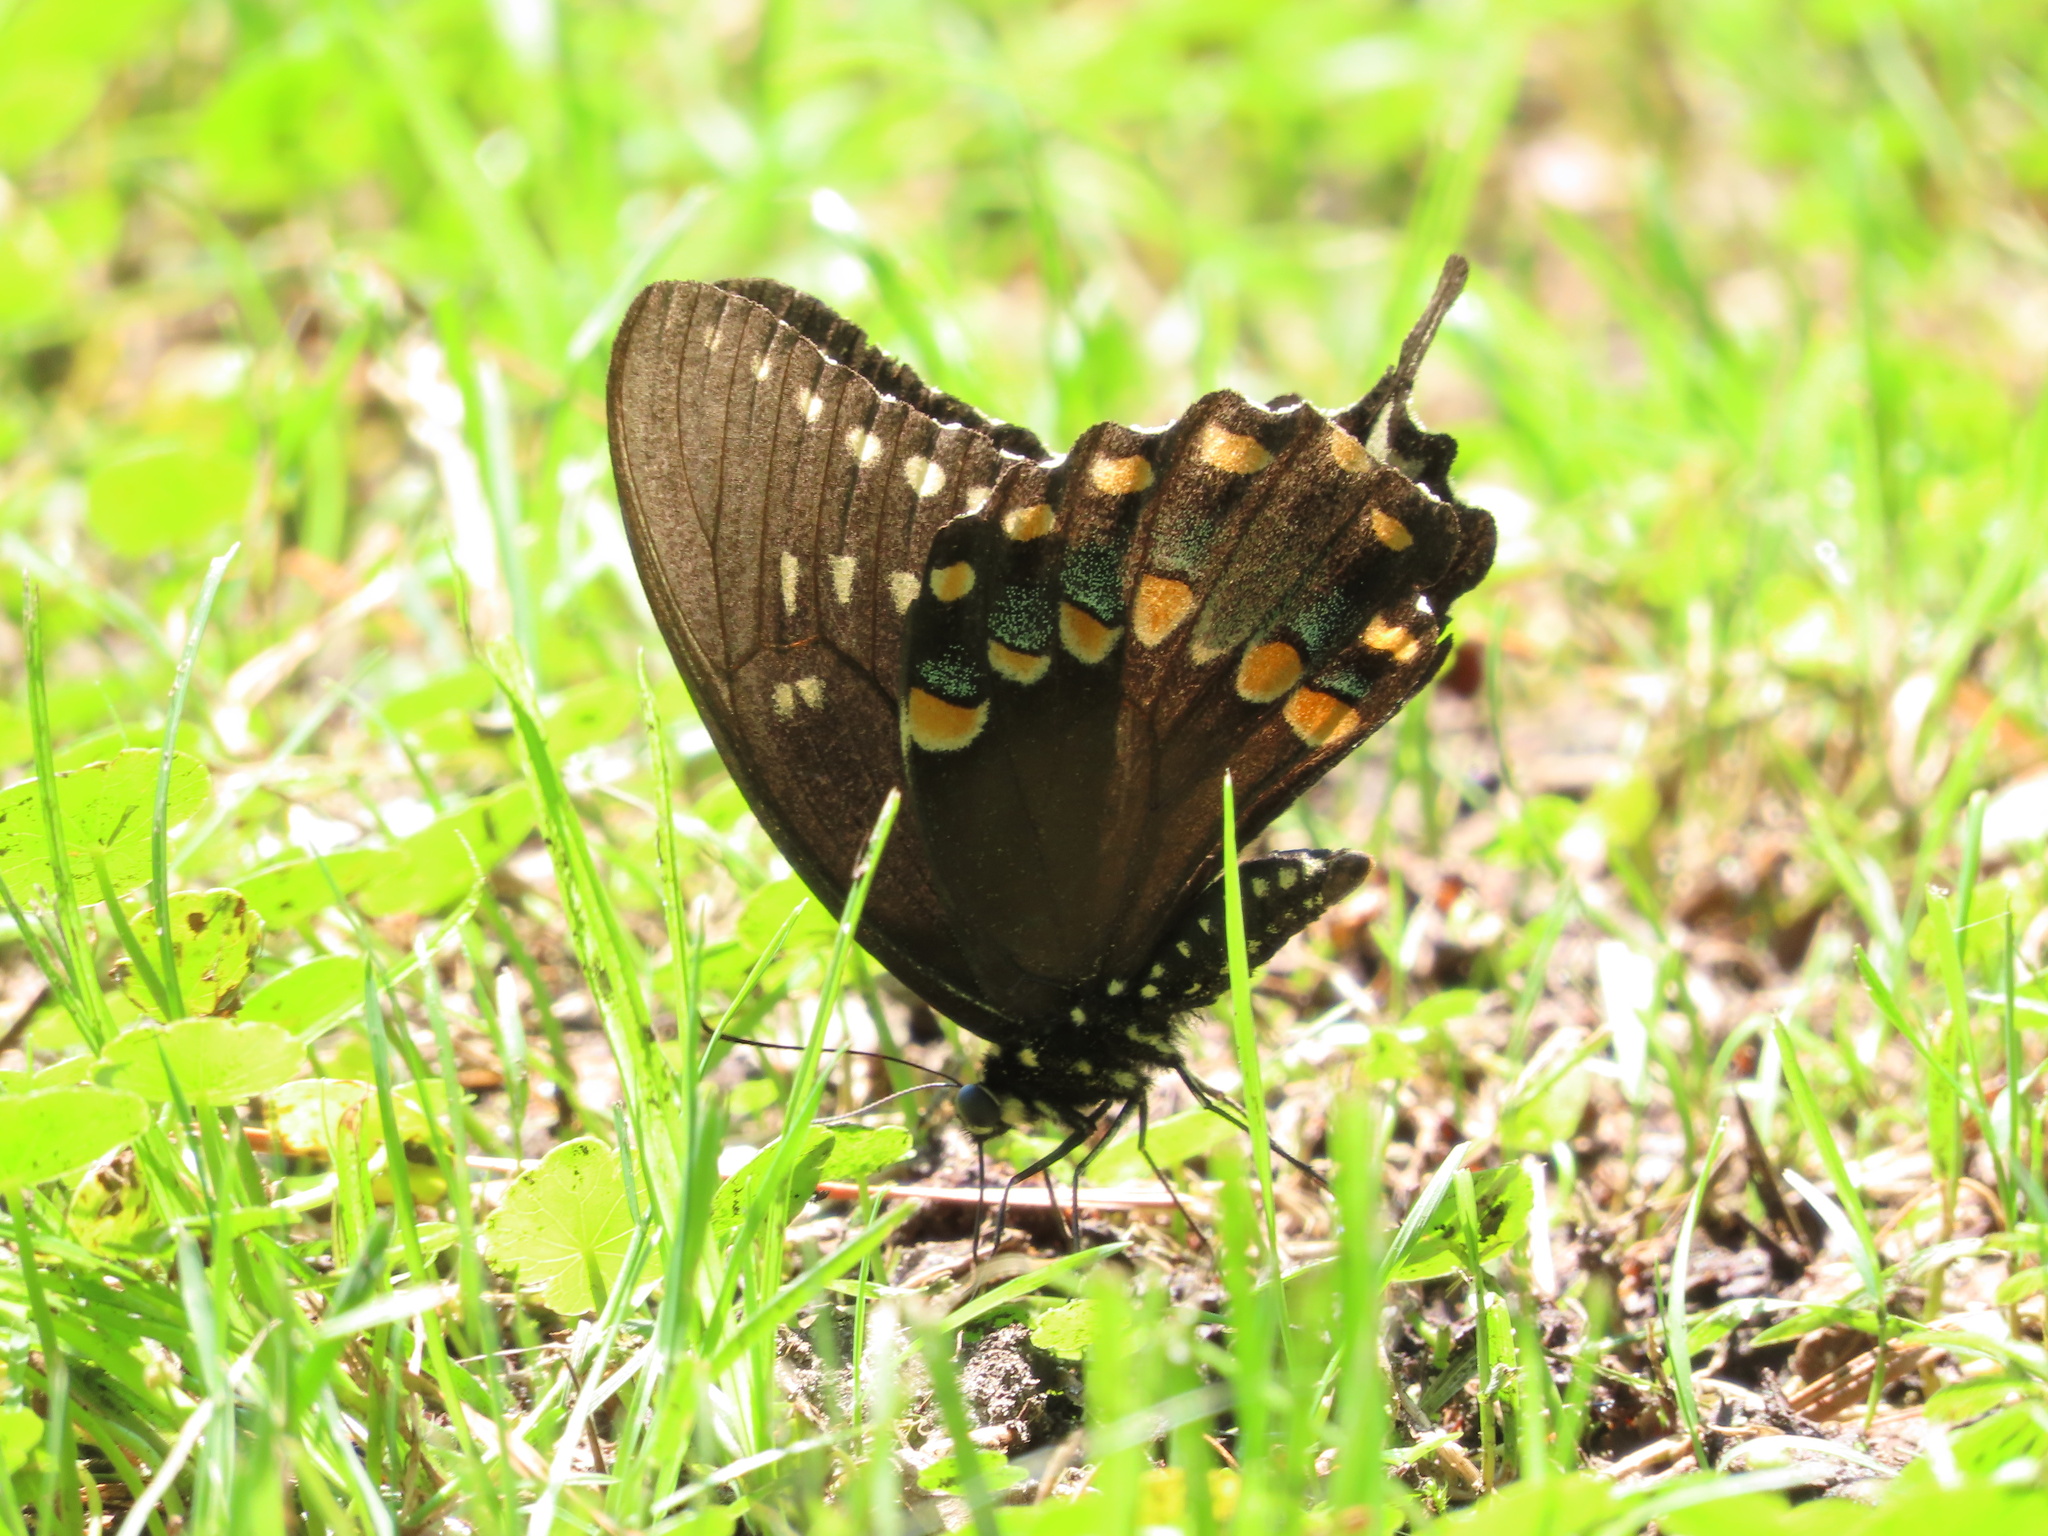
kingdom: Animalia
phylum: Arthropoda
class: Insecta
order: Lepidoptera
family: Papilionidae
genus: Papilio
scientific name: Papilio troilus
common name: Spicebush swallowtail
